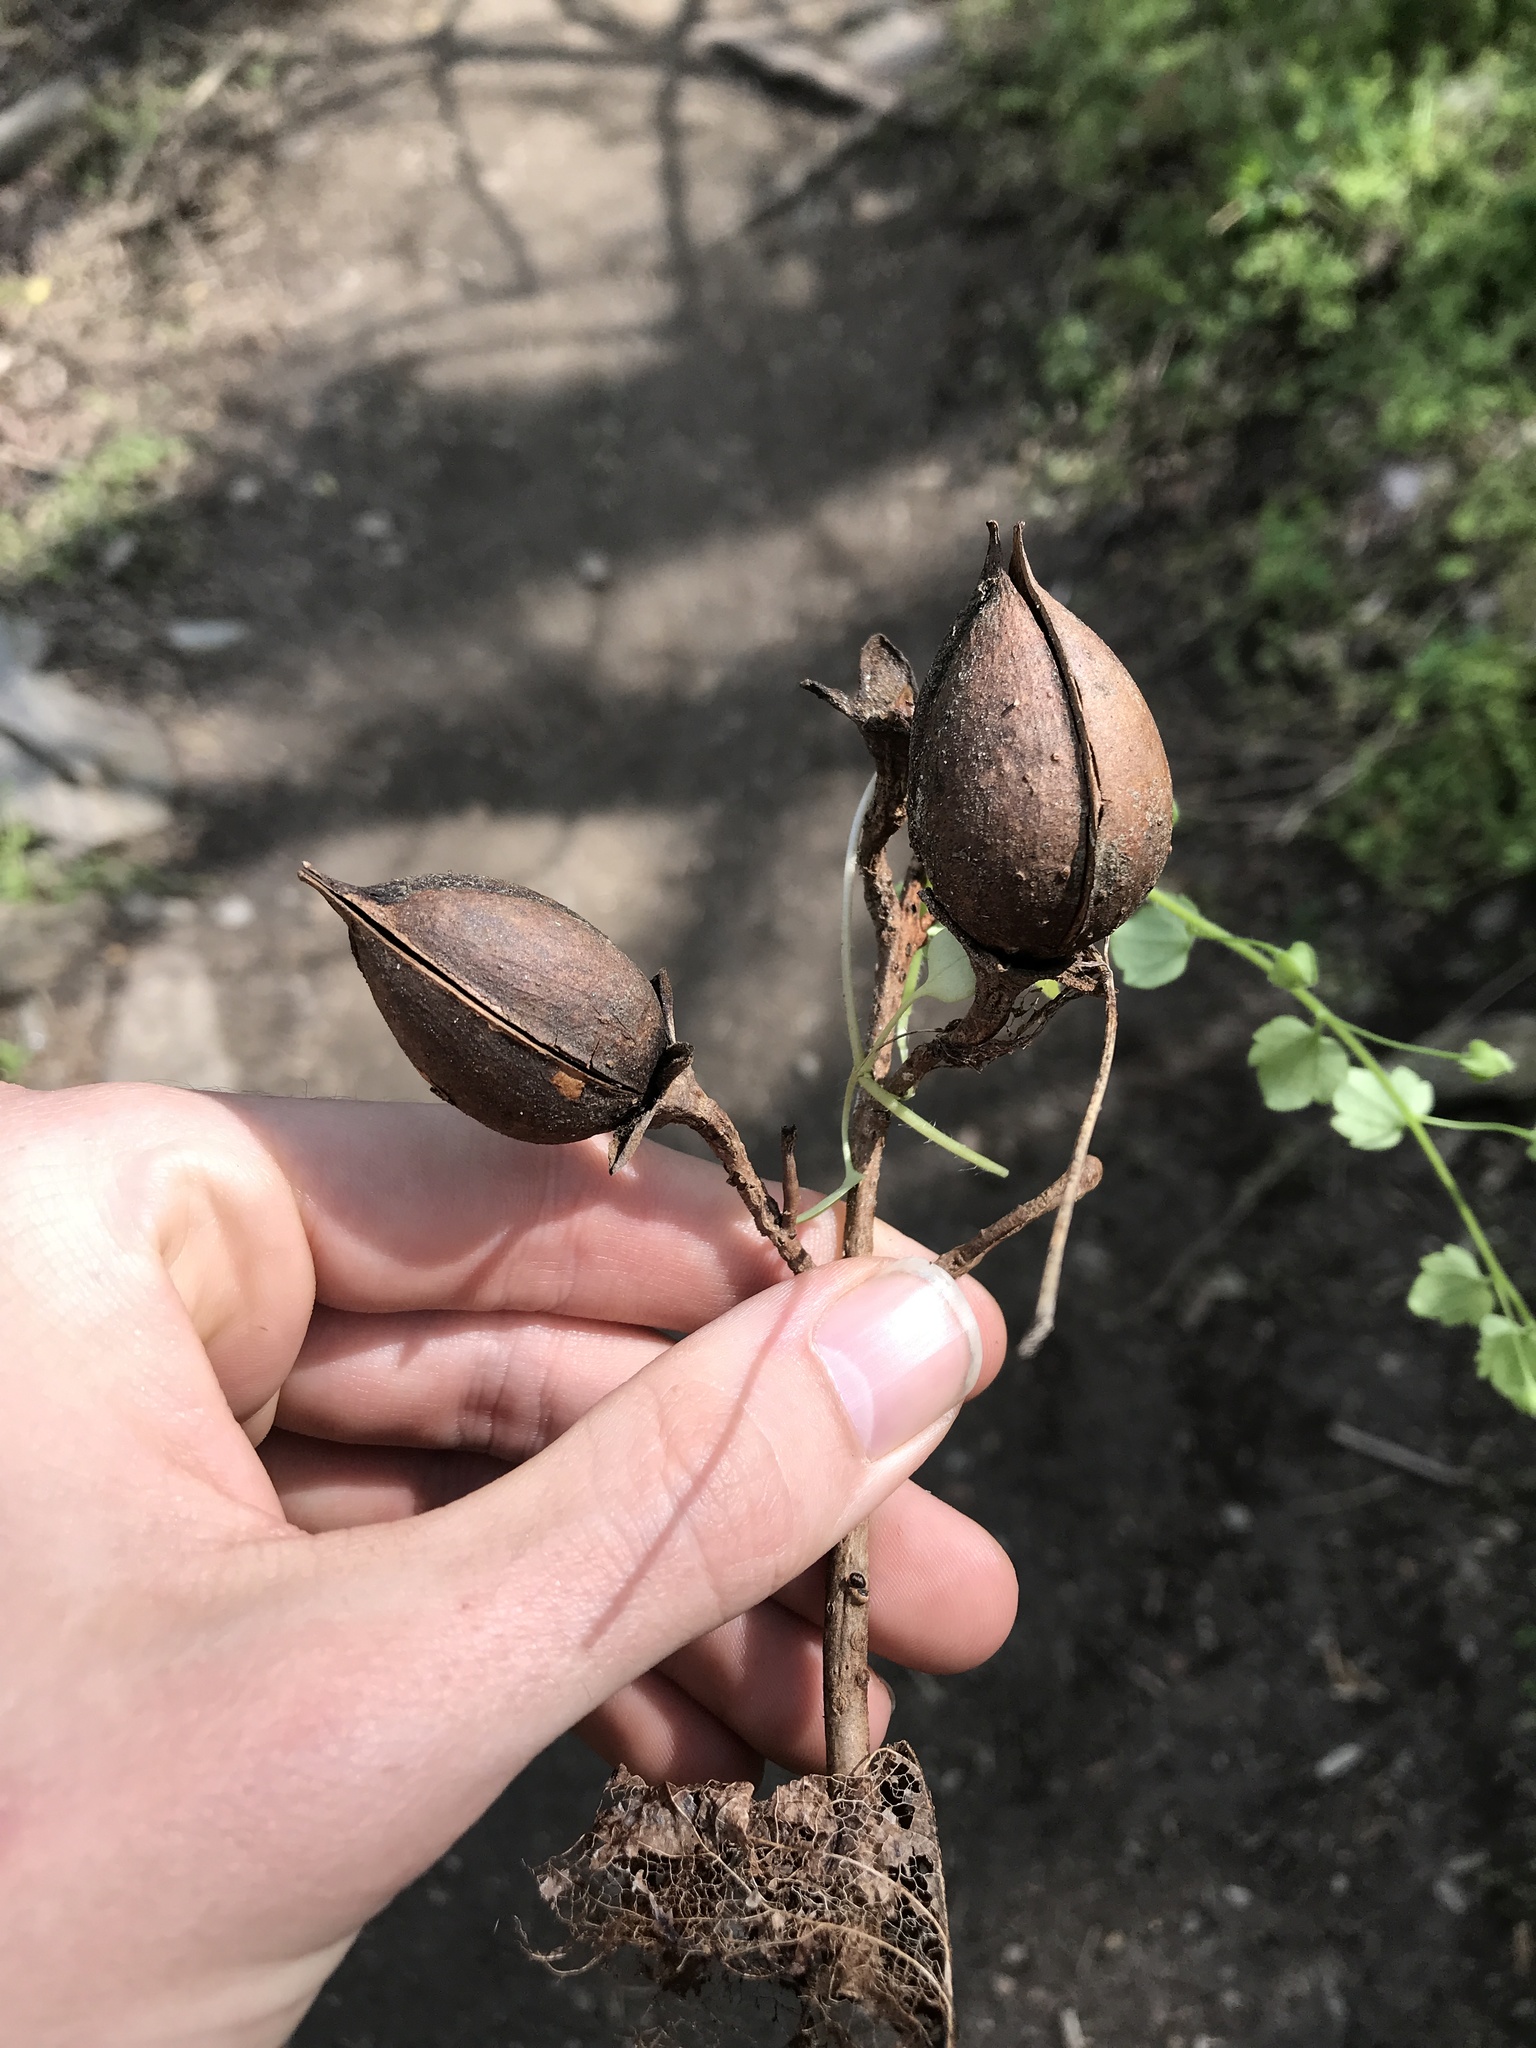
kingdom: Plantae
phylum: Tracheophyta
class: Magnoliopsida
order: Lamiales
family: Paulowniaceae
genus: Paulownia
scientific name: Paulownia tomentosa
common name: Foxglove-tree
